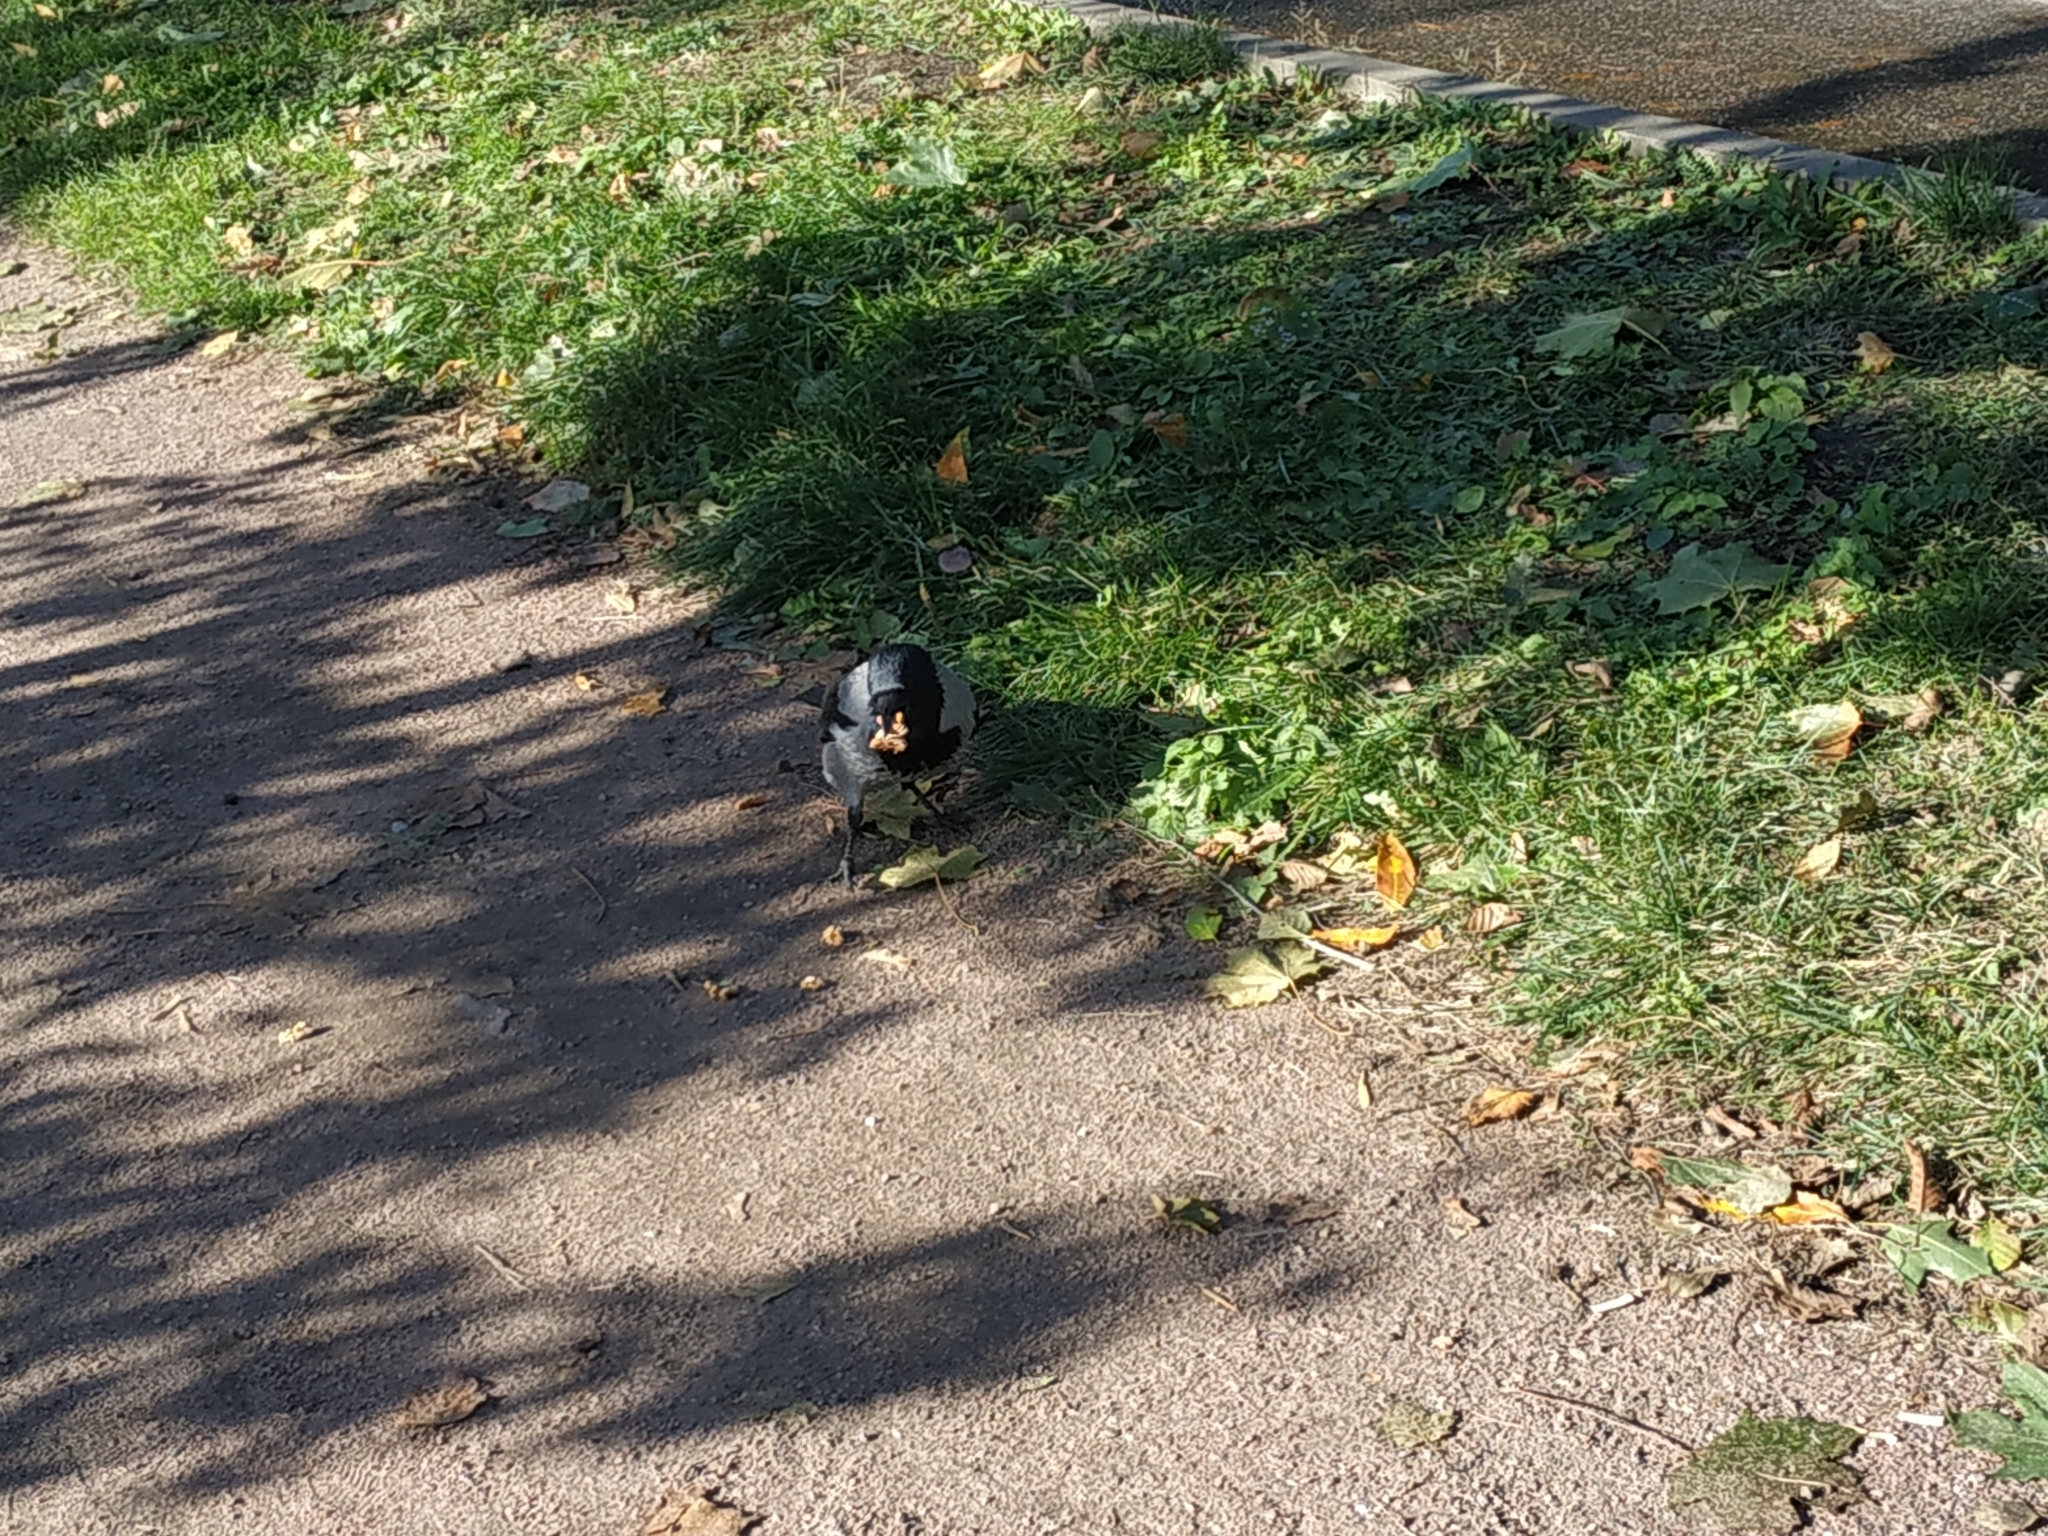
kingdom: Animalia
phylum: Chordata
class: Aves
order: Passeriformes
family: Corvidae
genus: Corvus
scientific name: Corvus cornix
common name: Hooded crow
